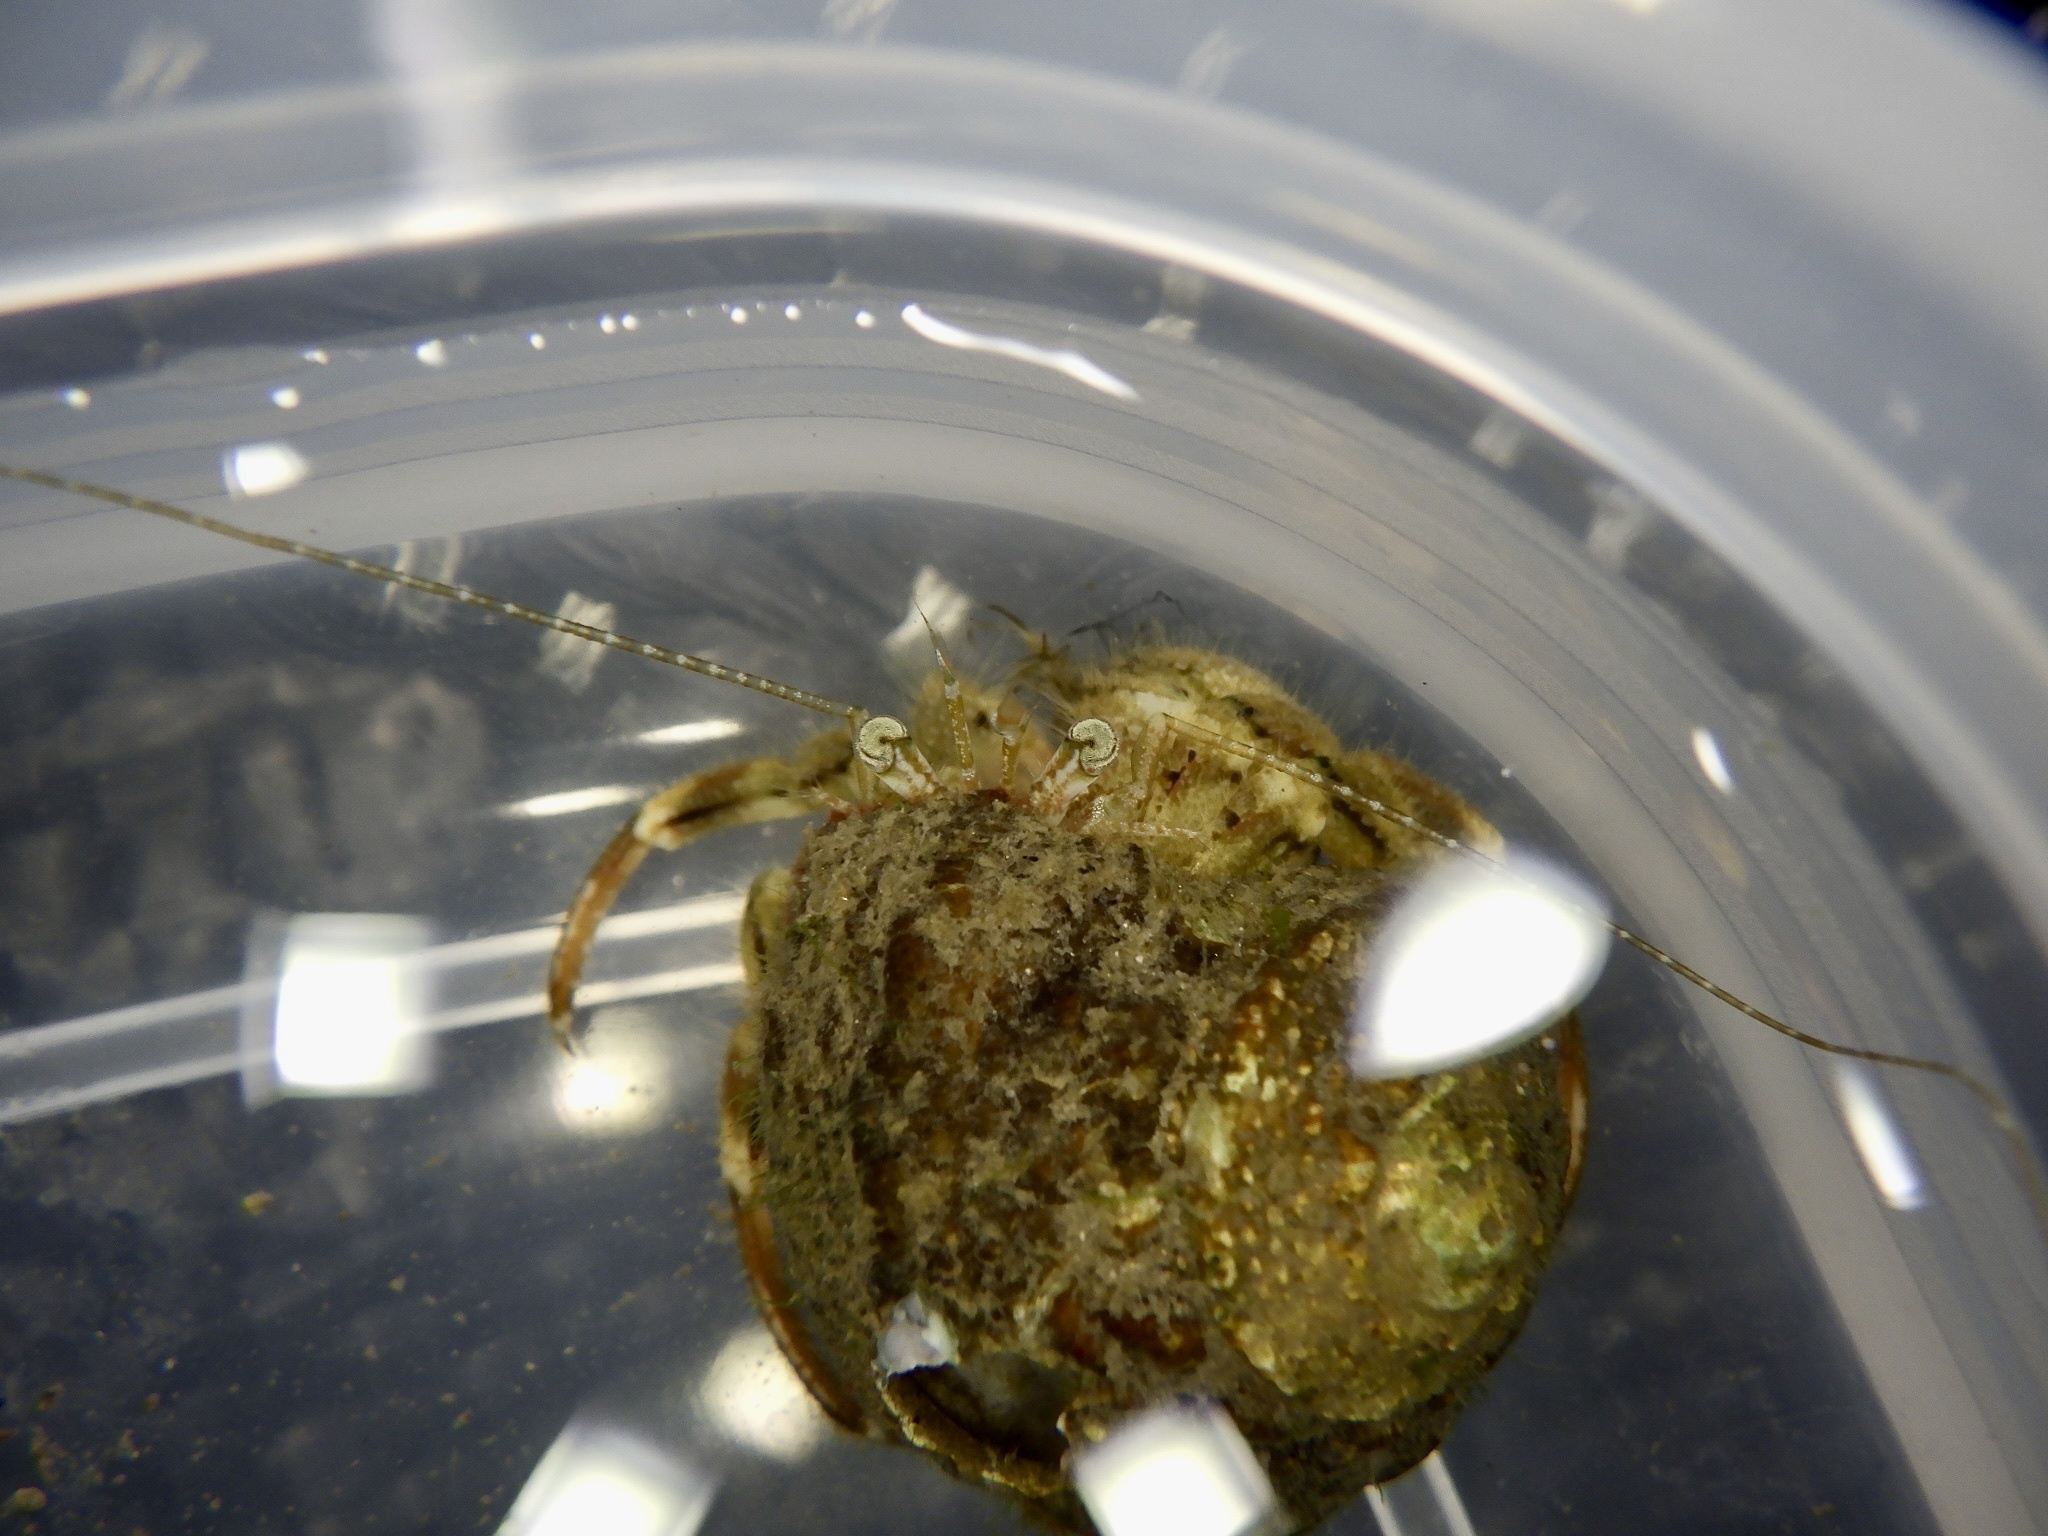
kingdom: Animalia
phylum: Arthropoda
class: Malacostraca
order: Decapoda
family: Paguridae
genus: Pagurus
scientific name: Pagurus minutus
